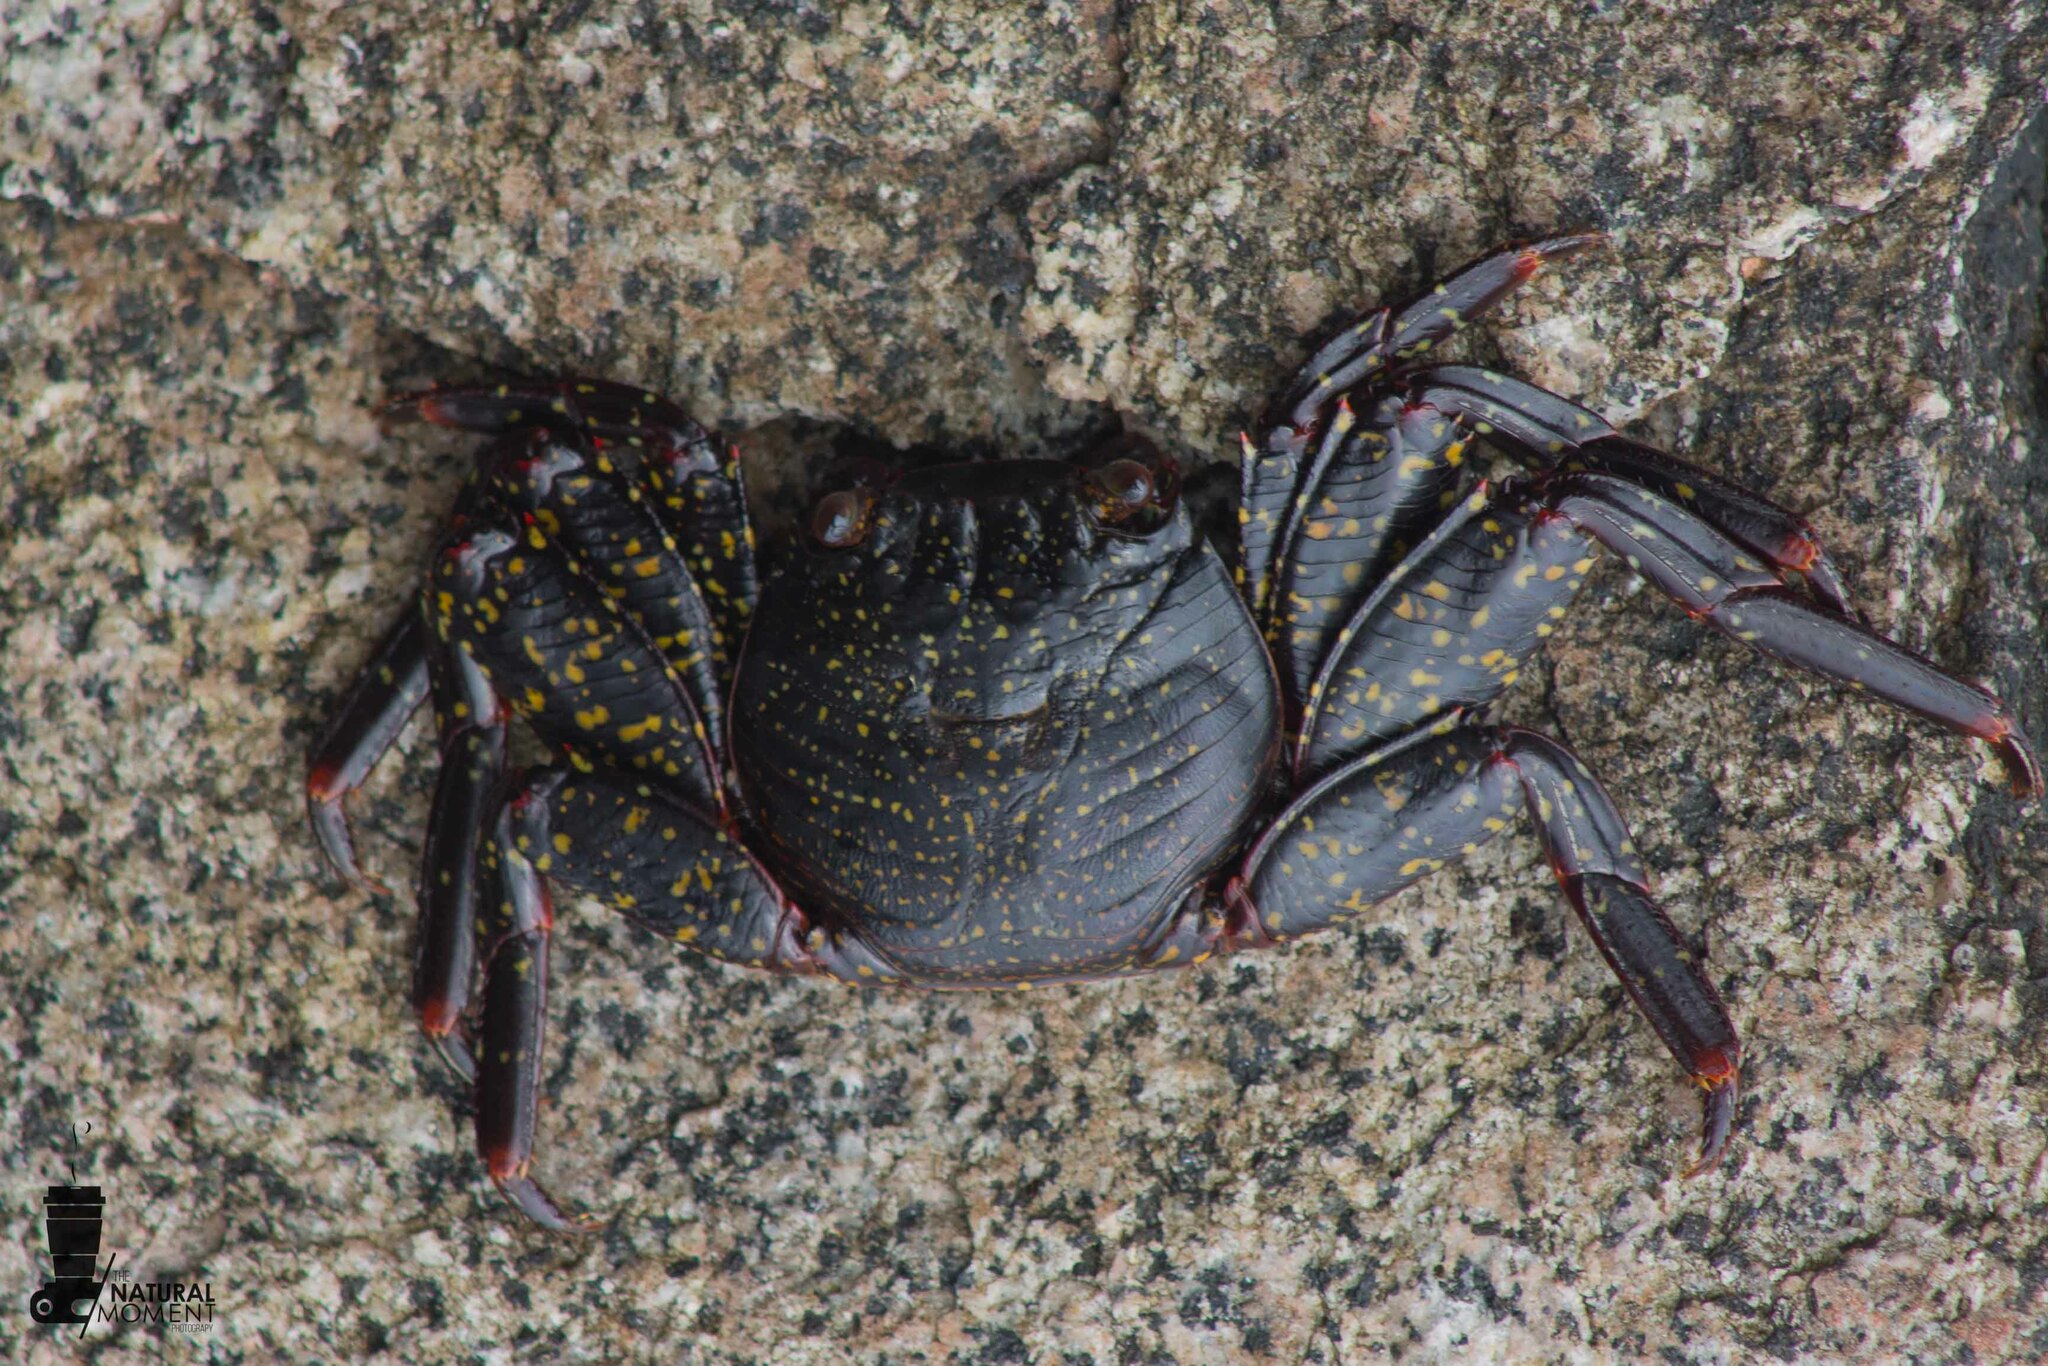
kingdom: Animalia
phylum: Arthropoda
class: Malacostraca
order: Decapoda
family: Grapsidae
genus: Grapsus
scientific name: Grapsus grapsus
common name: Sally lightfoot
